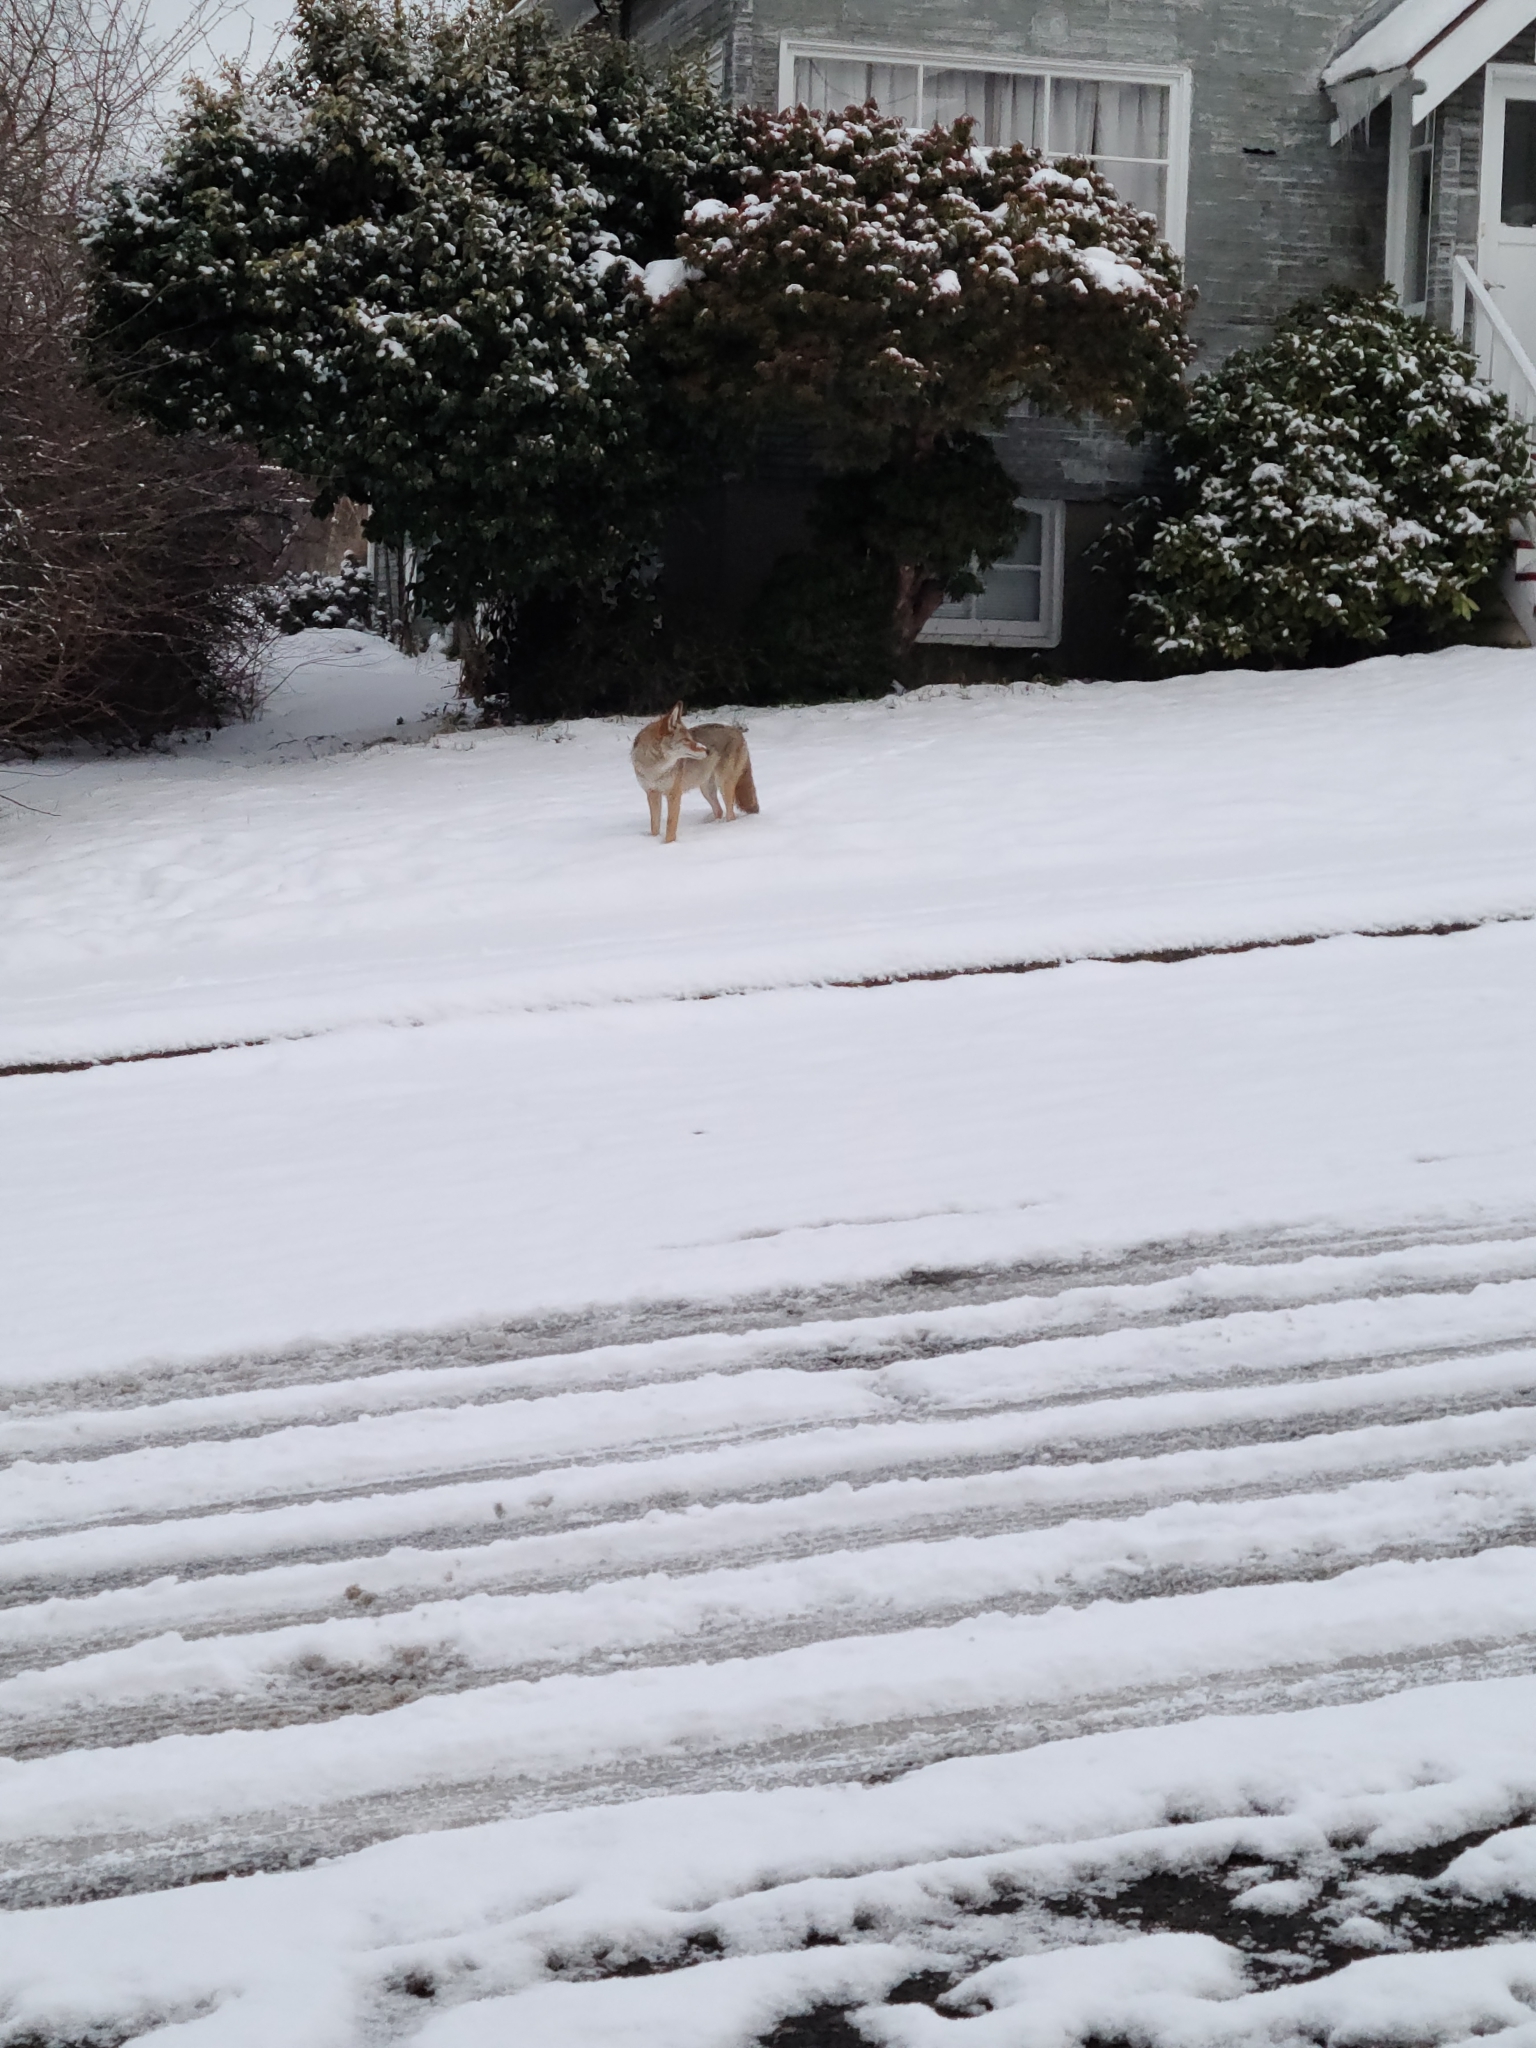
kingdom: Animalia
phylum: Chordata
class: Mammalia
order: Carnivora
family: Canidae
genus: Canis
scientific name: Canis latrans
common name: Coyote
